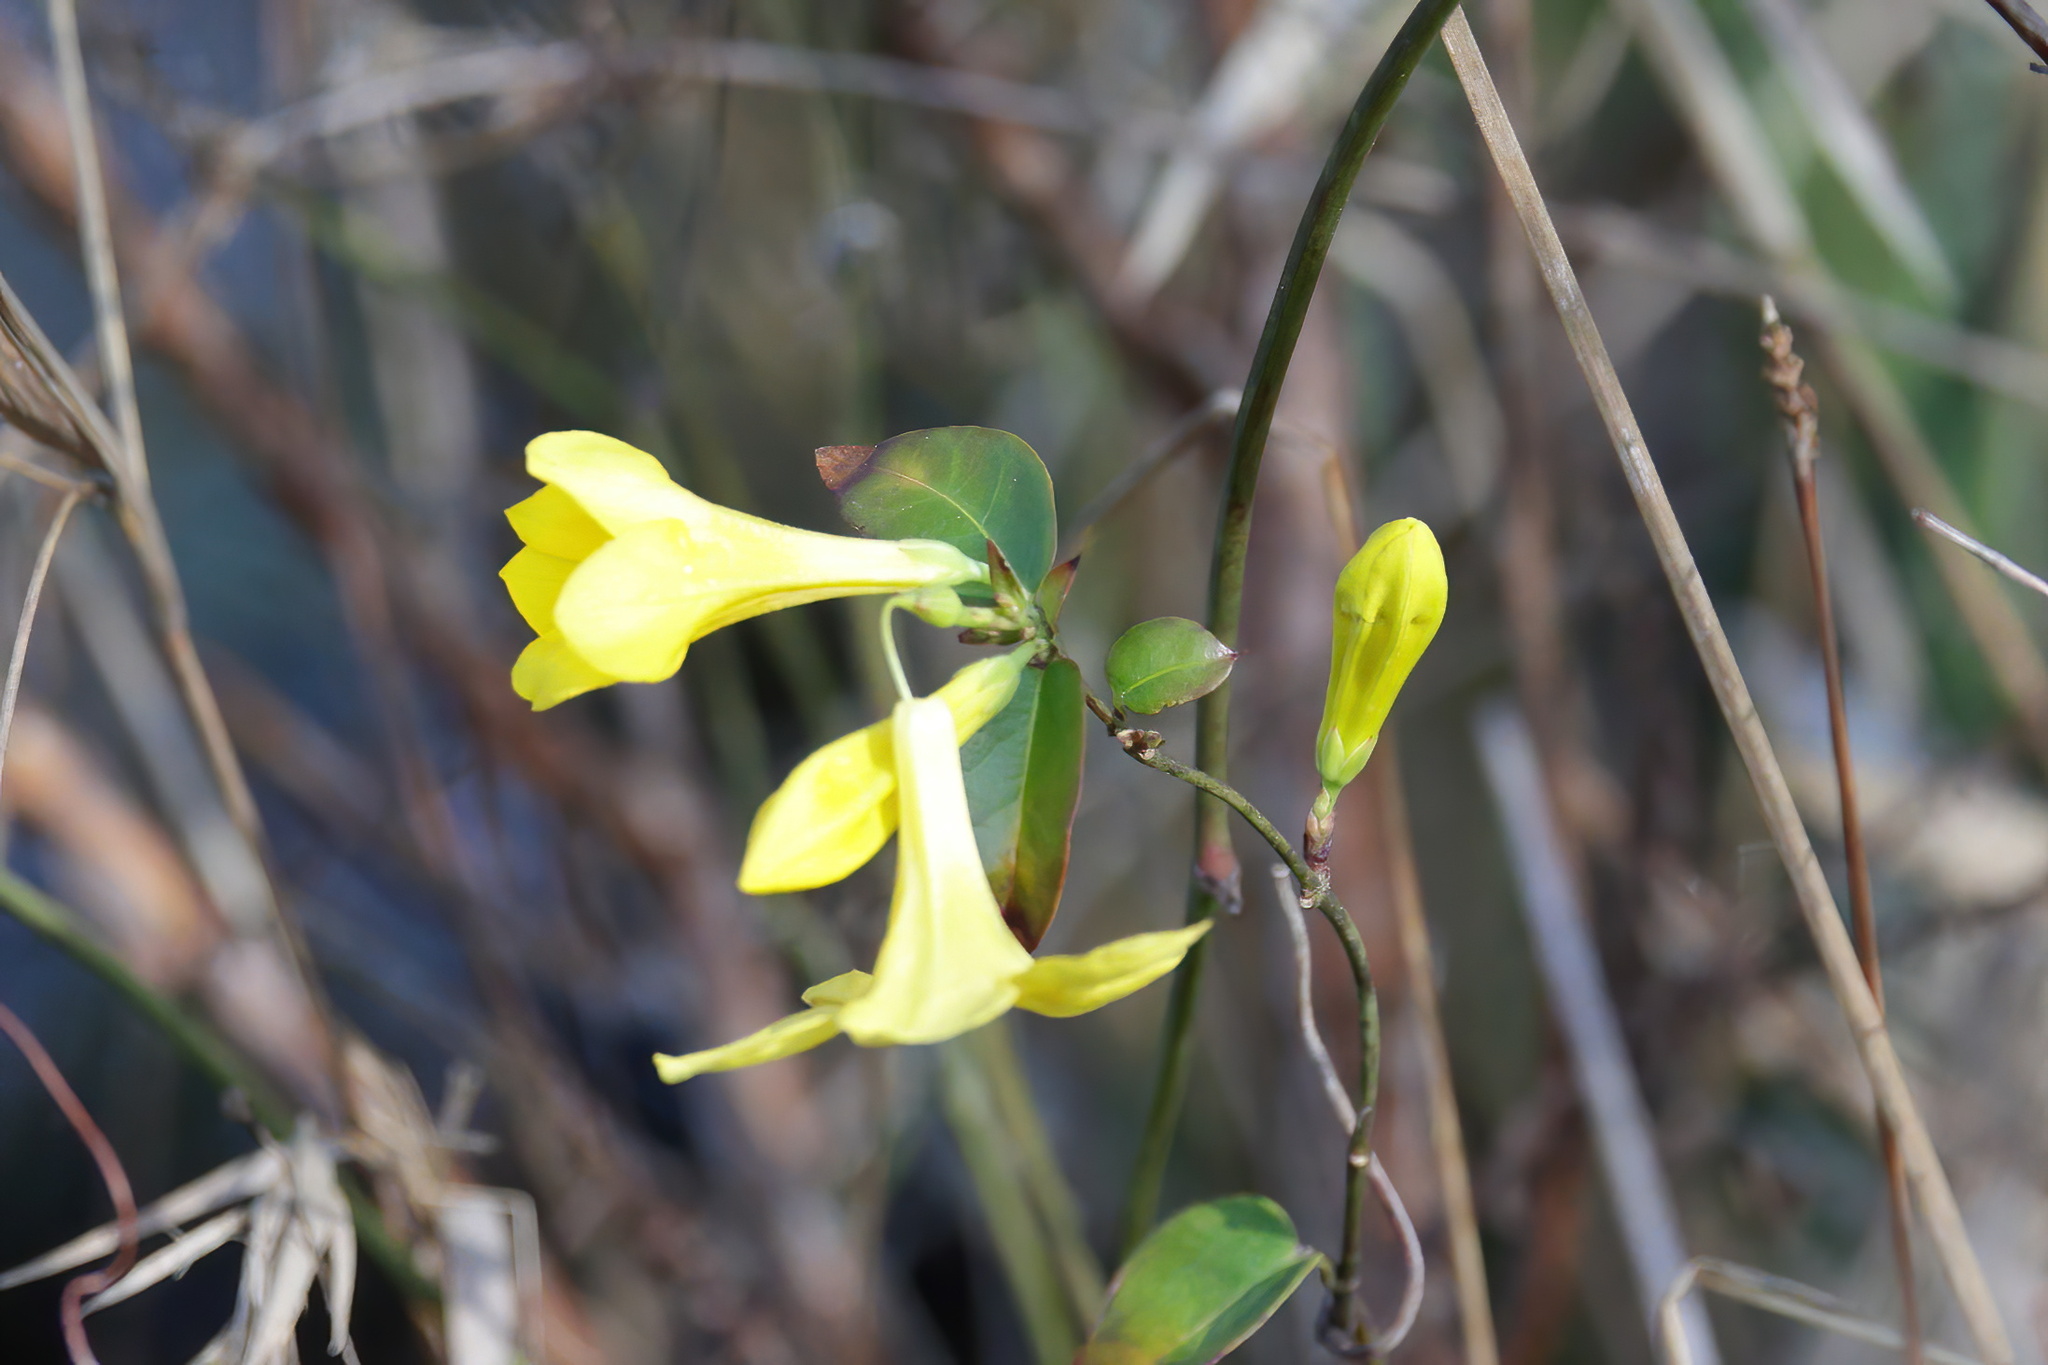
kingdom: Plantae
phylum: Tracheophyta
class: Magnoliopsida
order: Gentianales
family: Gelsemiaceae
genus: Gelsemium
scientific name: Gelsemium sempervirens
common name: Carolina-jasmine
